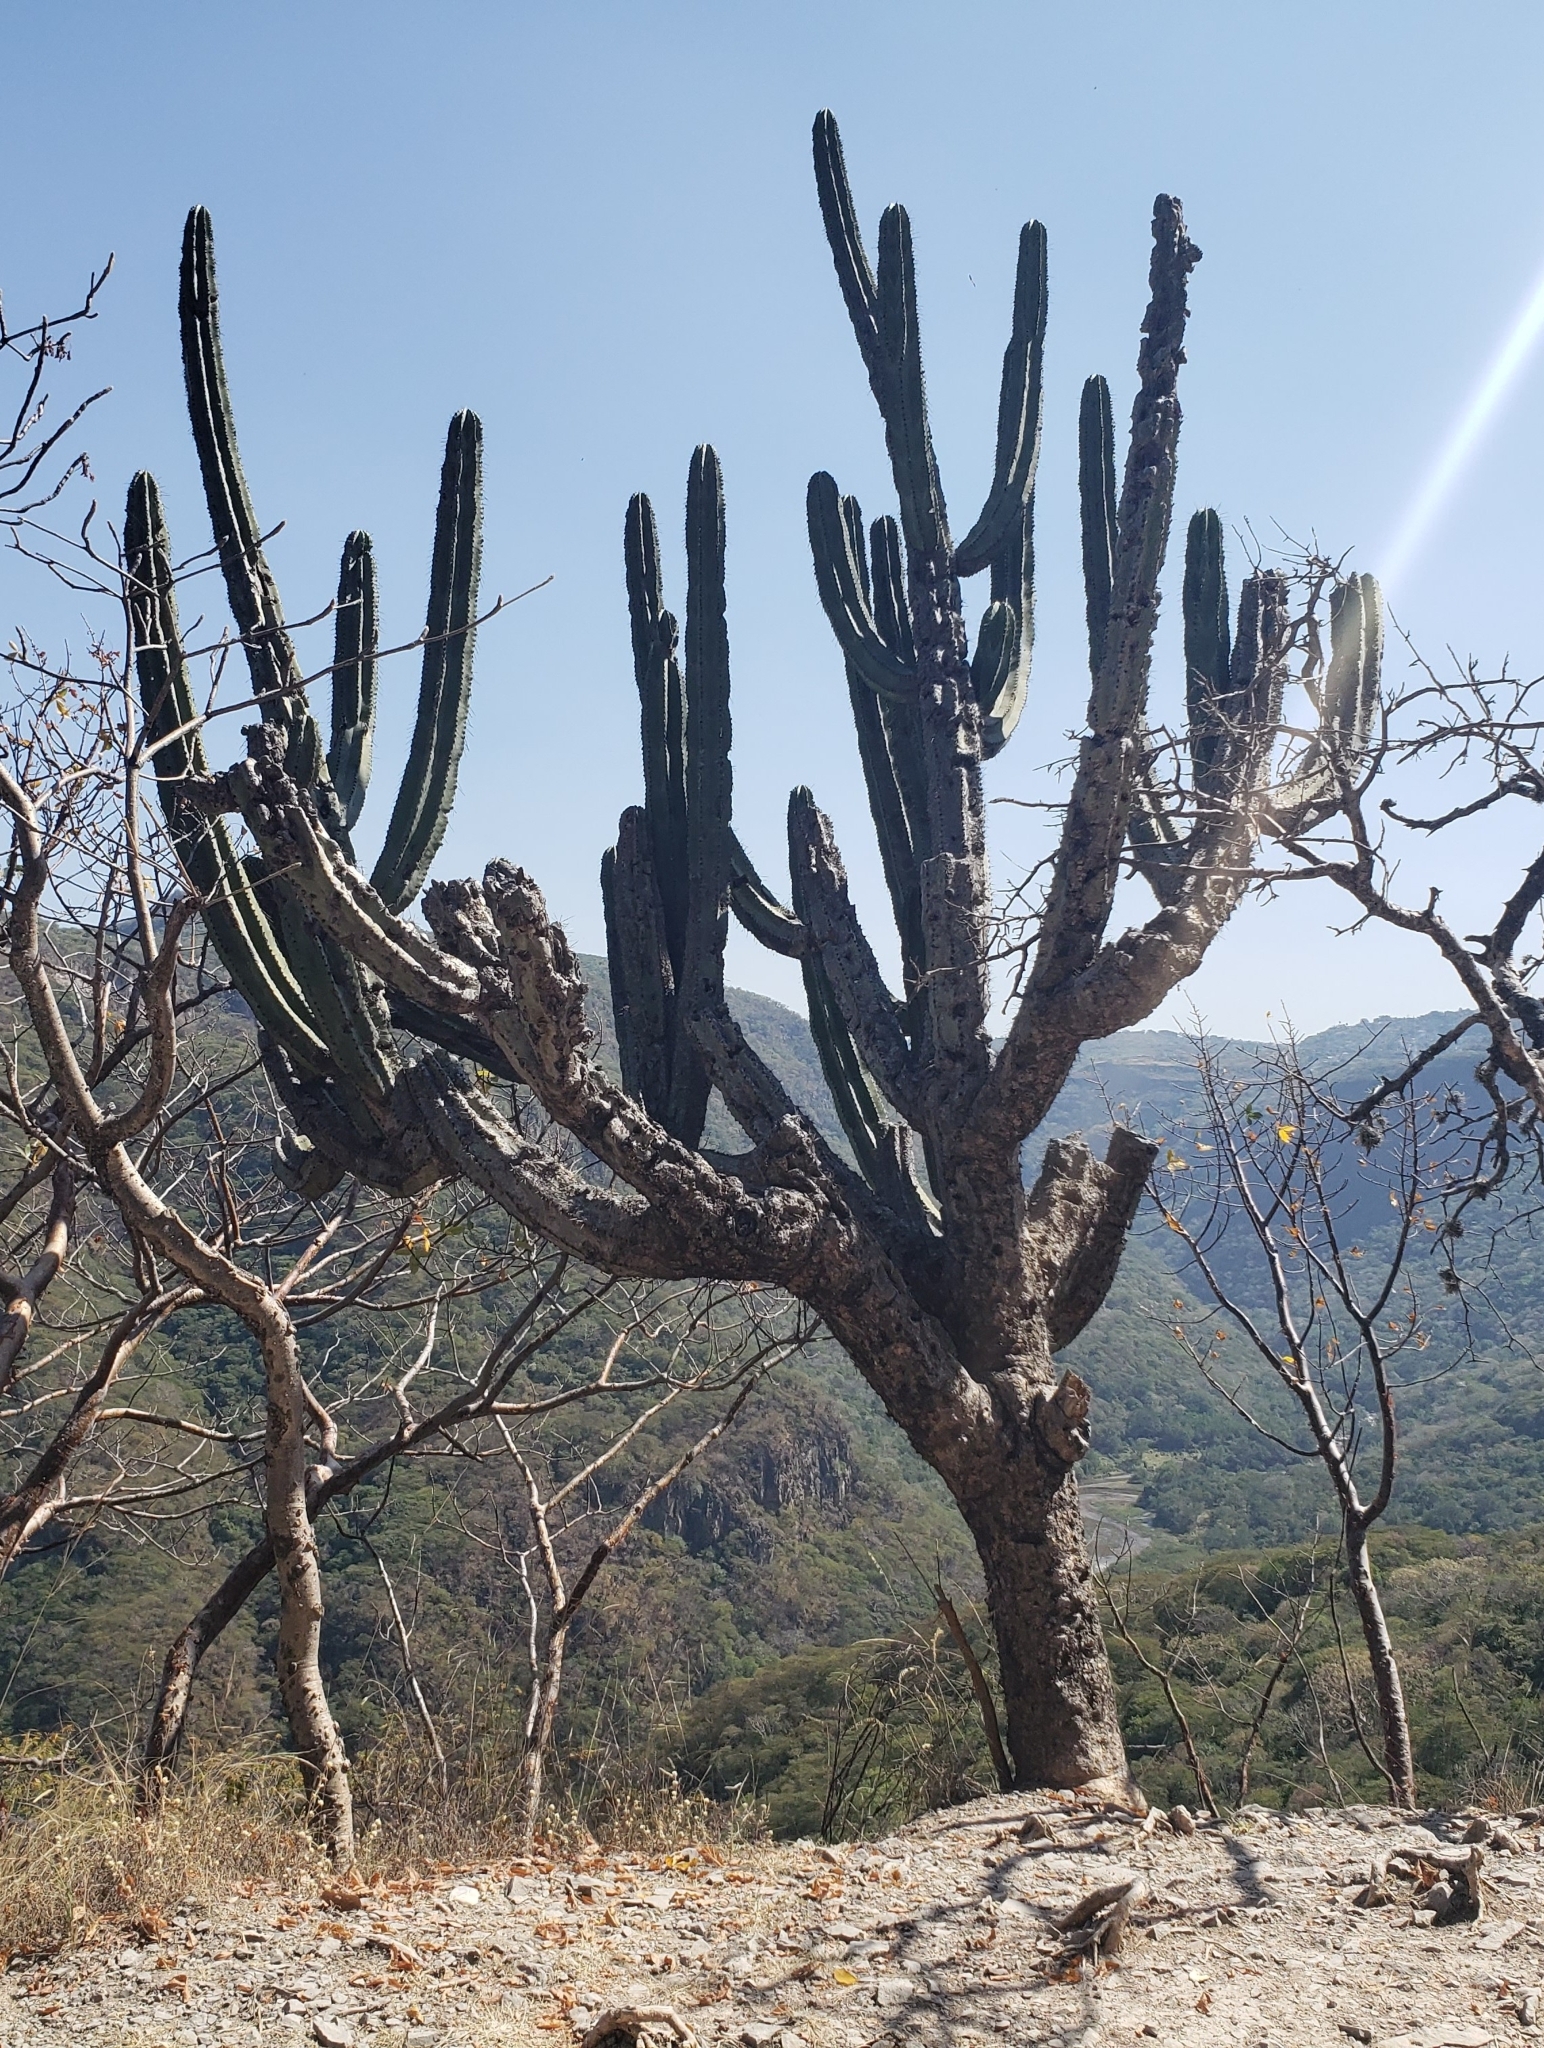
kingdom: Plantae
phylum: Tracheophyta
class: Magnoliopsida
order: Caryophyllales
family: Cactaceae
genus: Stenocereus
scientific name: Stenocereus queretaroensis
